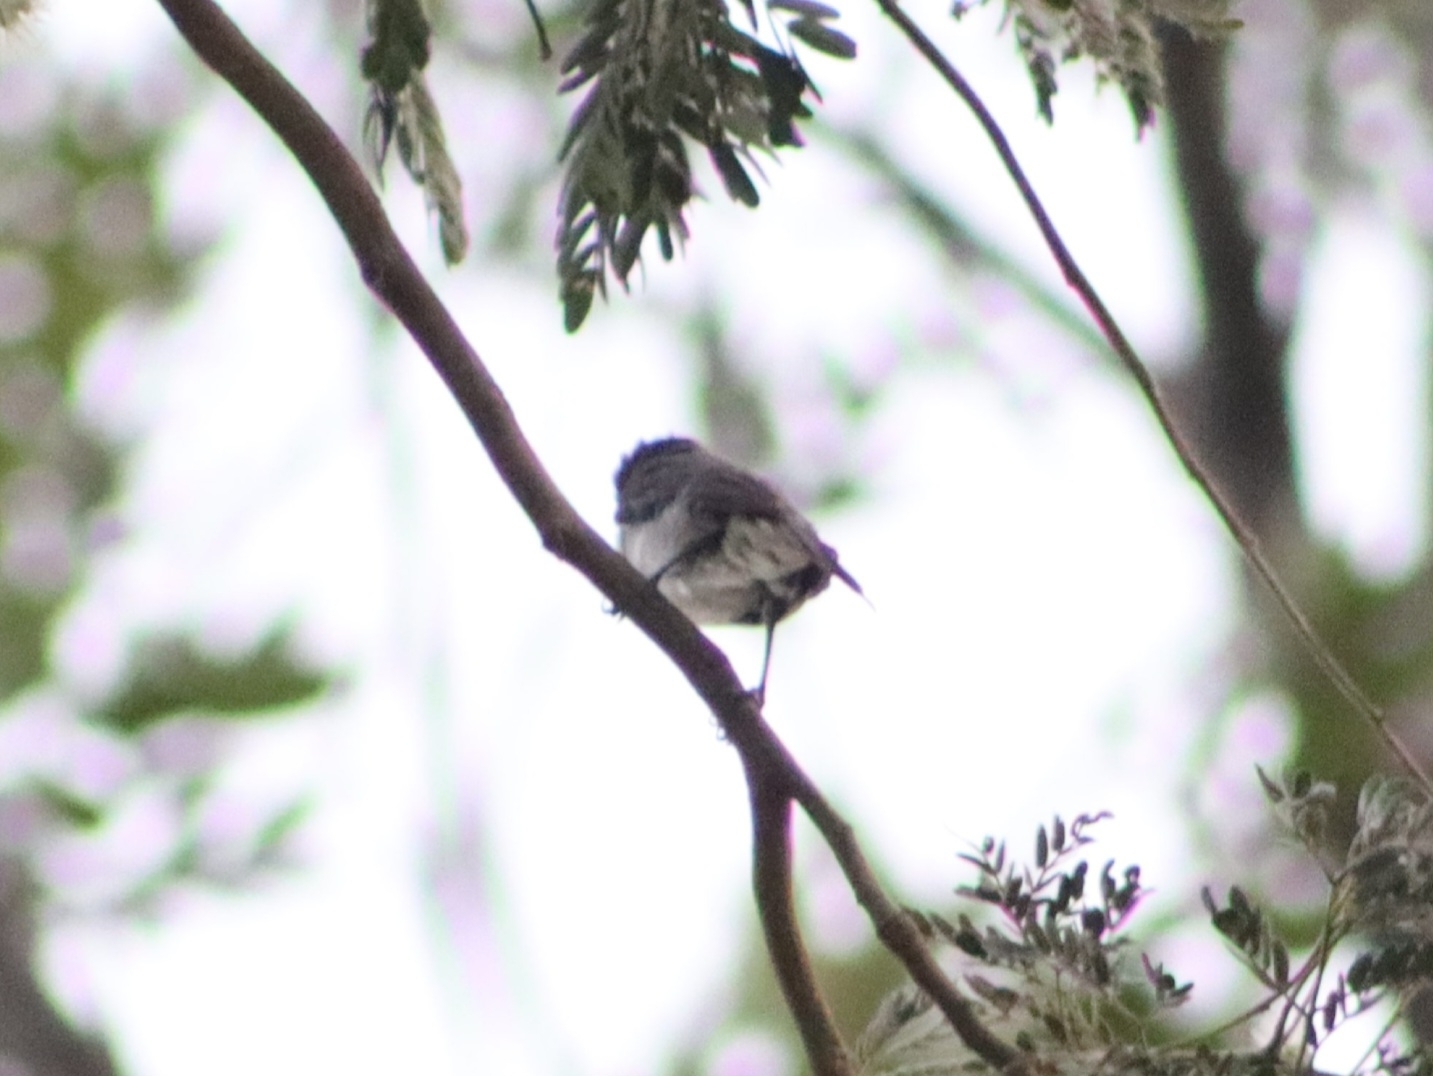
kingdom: Animalia
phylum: Chordata
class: Aves
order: Passeriformes
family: Cotingidae
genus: Pachyramphus
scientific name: Pachyramphus aglaiae
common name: Rose-throated becard
